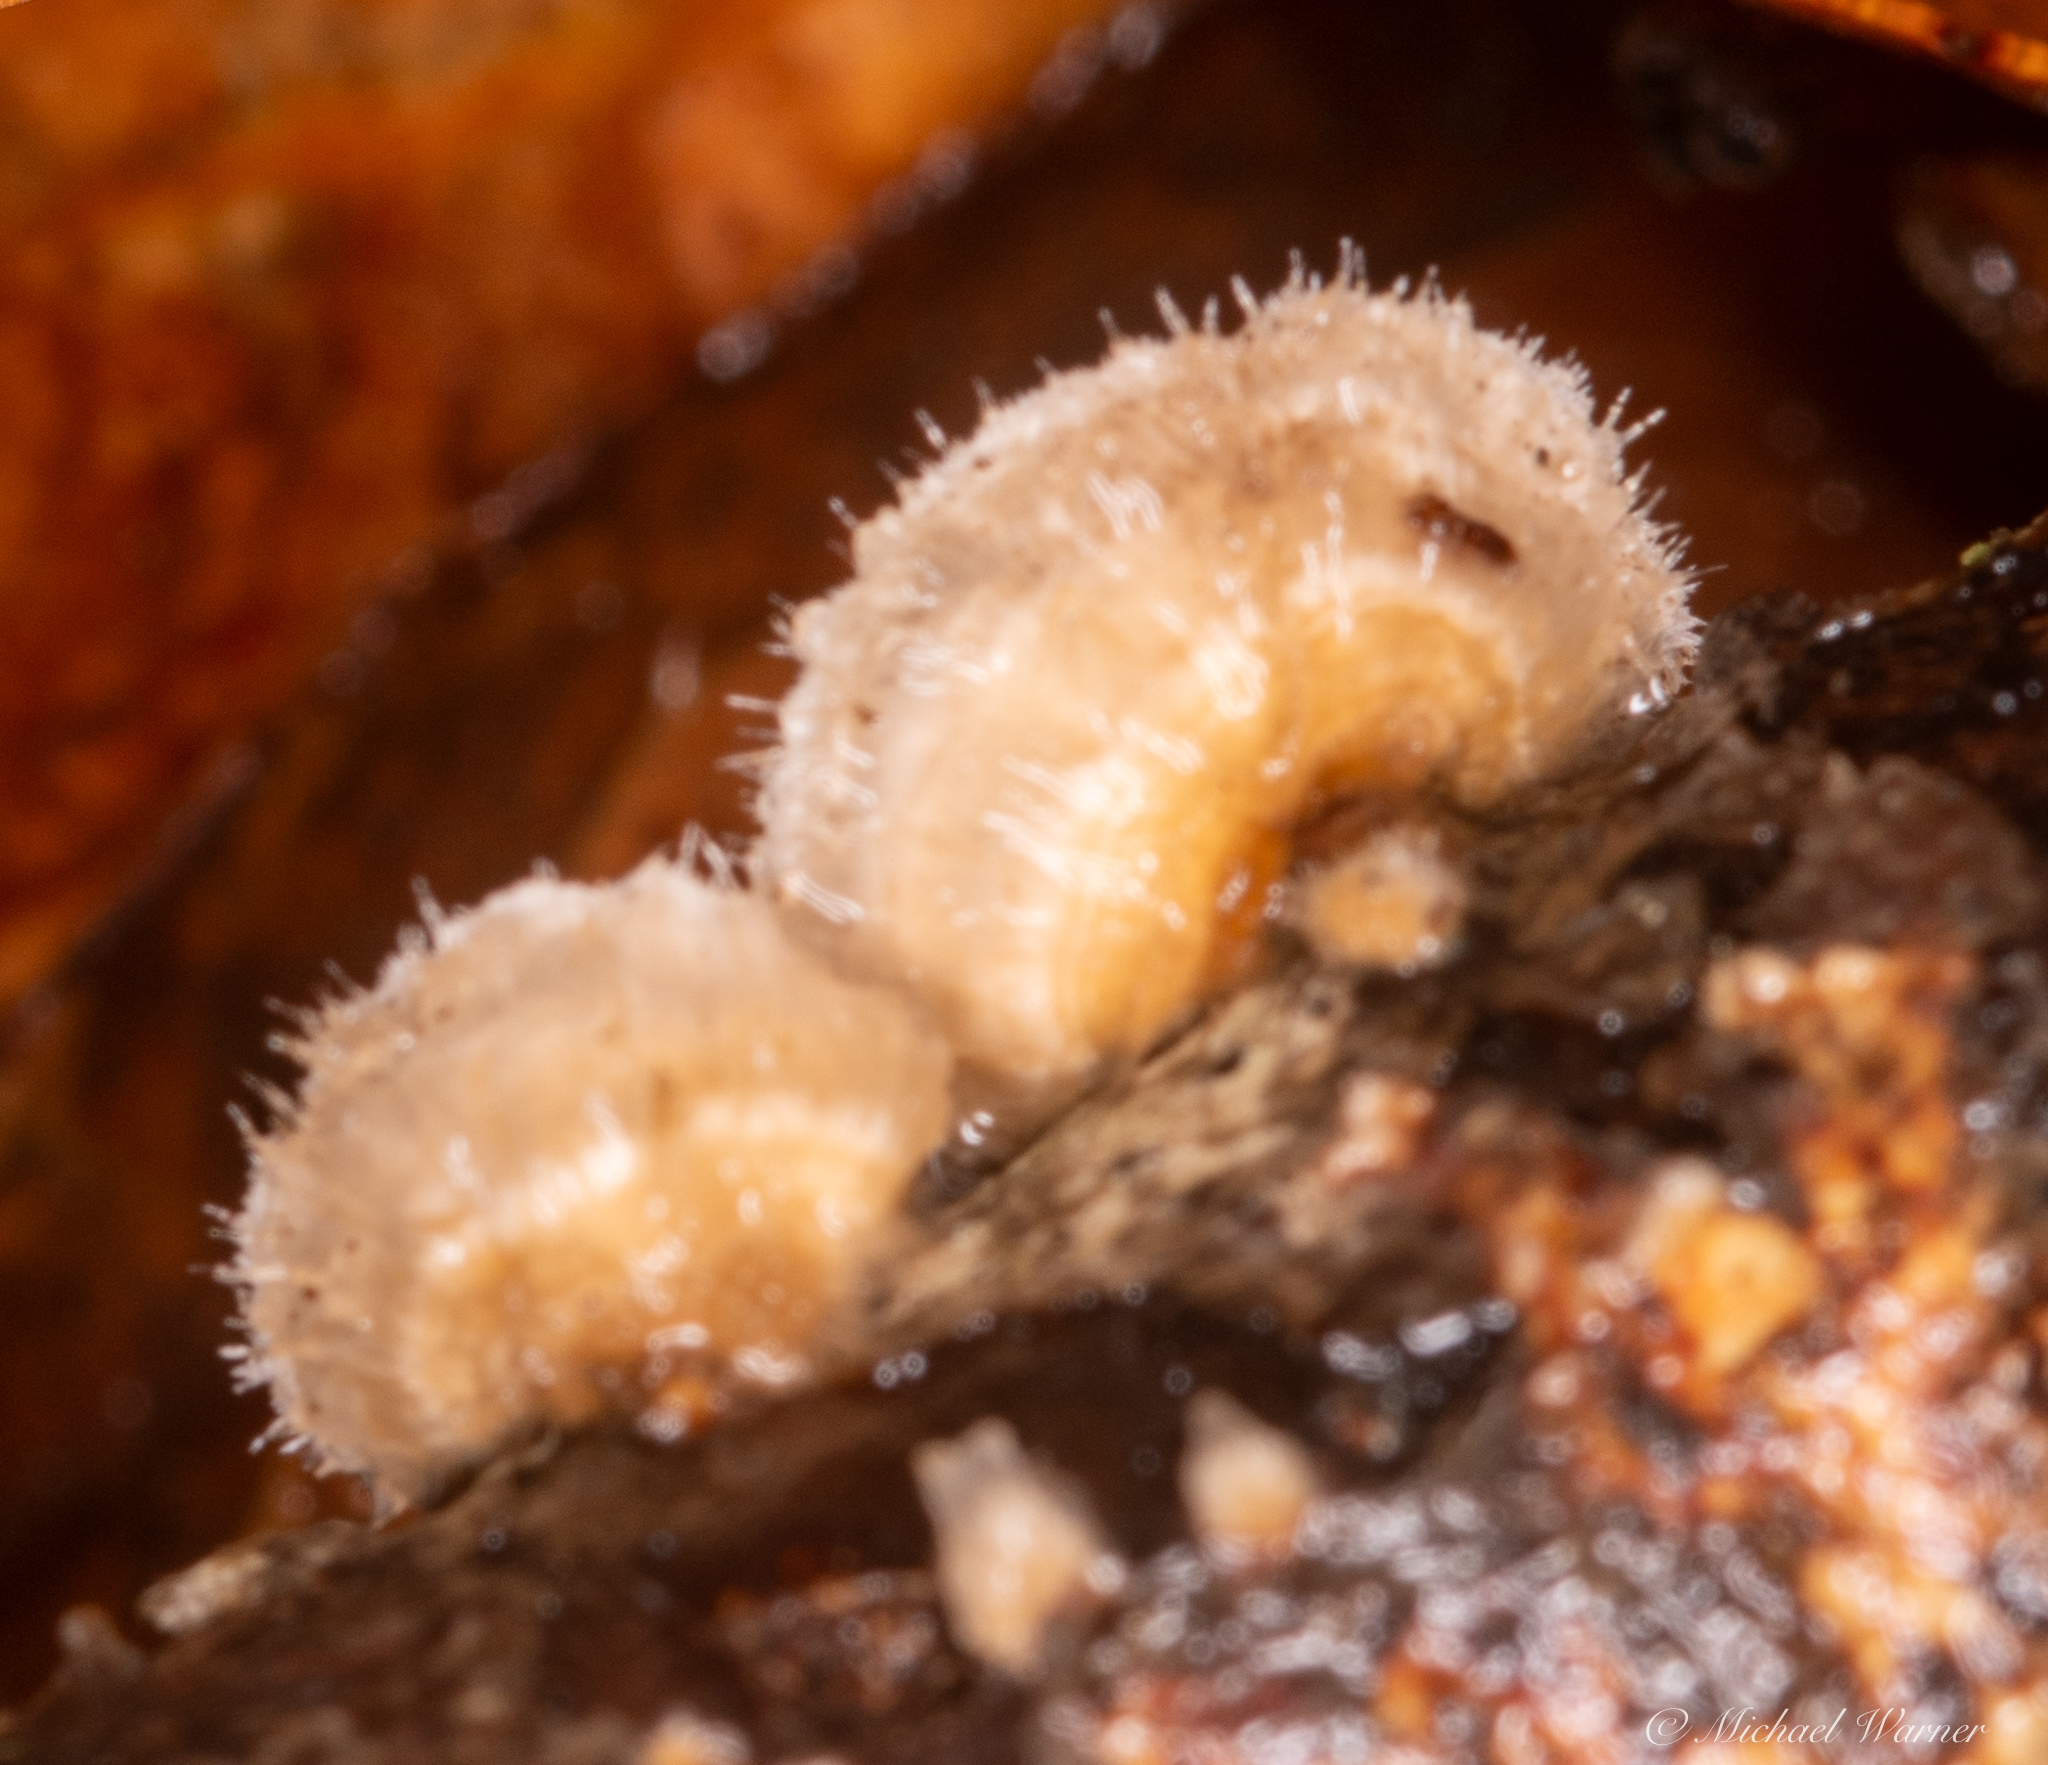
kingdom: Fungi
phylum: Basidiomycota
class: Agaricomycetes
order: Russulales
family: Stereaceae
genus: Stereum
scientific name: Stereum ochraceoflavum
